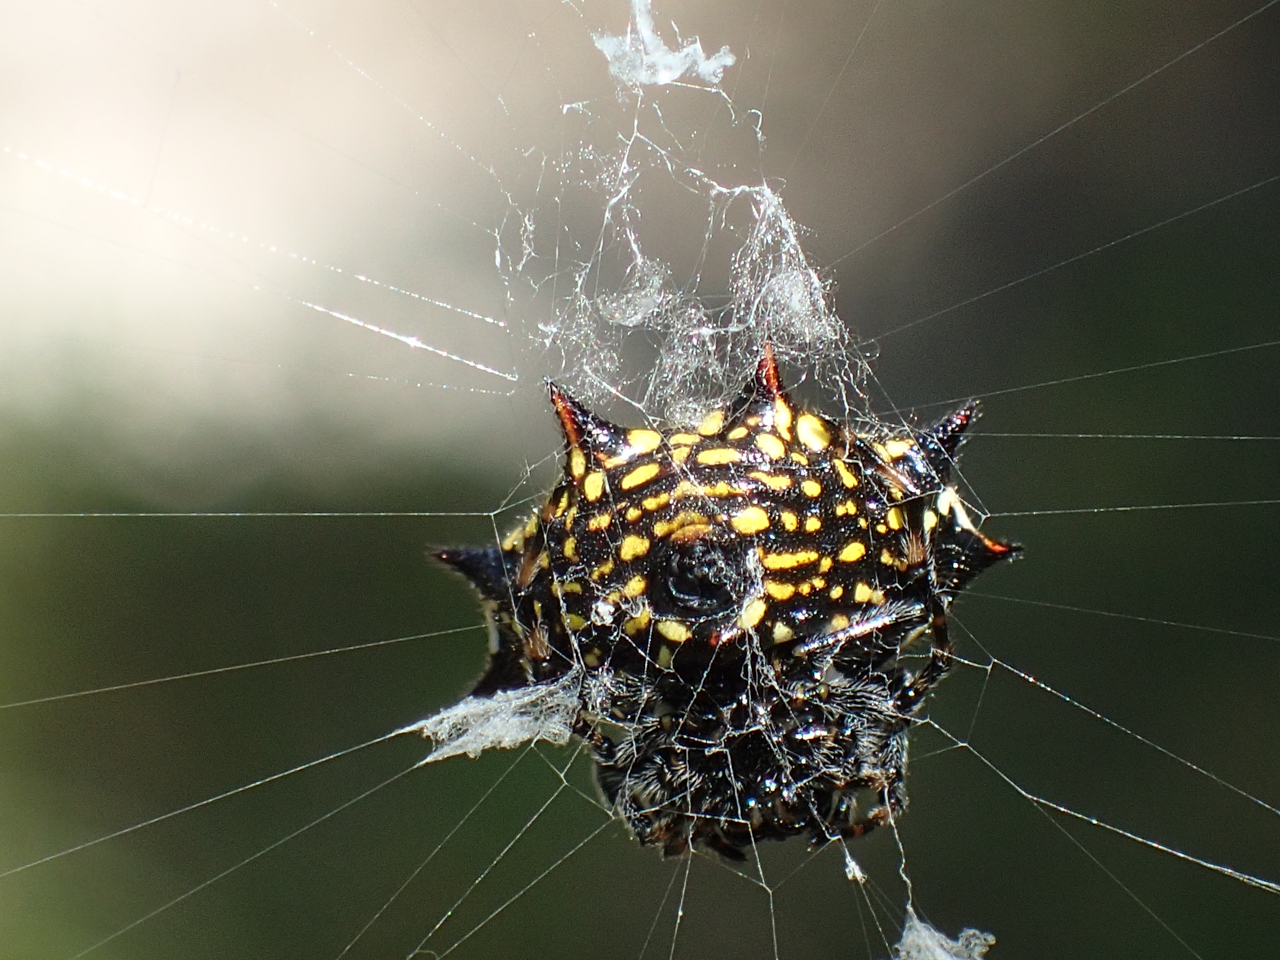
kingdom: Animalia
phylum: Arthropoda
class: Arachnida
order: Araneae
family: Araneidae
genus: Gasteracantha
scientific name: Gasteracantha cancriformis
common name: Orb weavers
